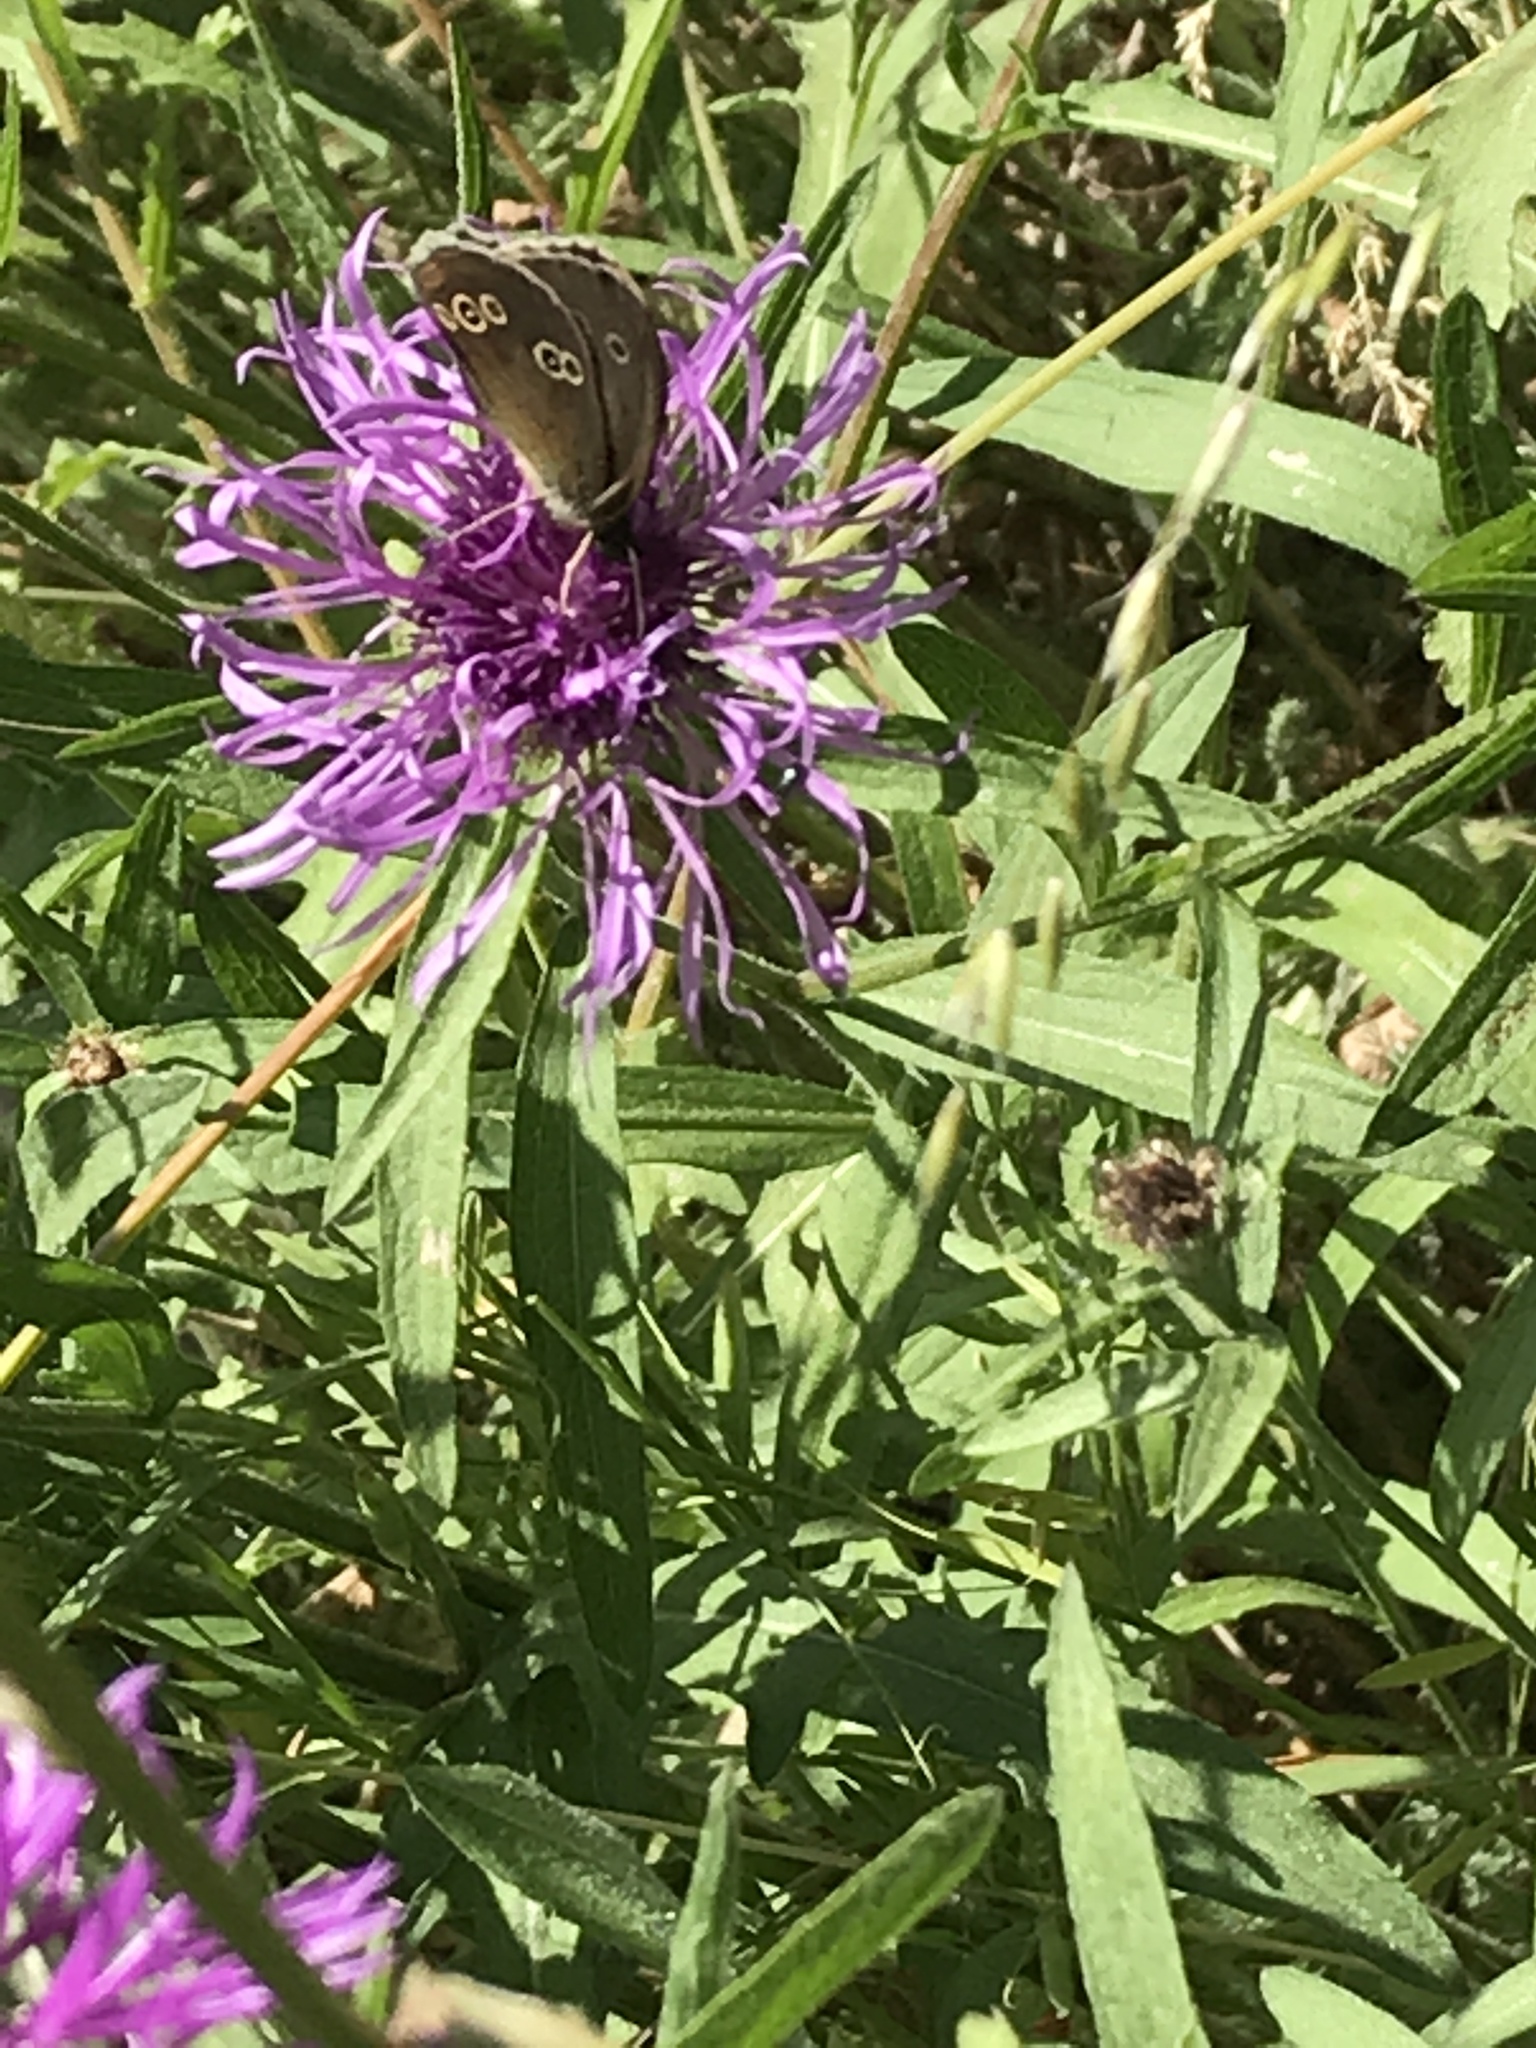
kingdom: Animalia
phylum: Arthropoda
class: Insecta
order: Lepidoptera
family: Nymphalidae
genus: Aphantopus
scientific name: Aphantopus hyperantus
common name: Ringlet
